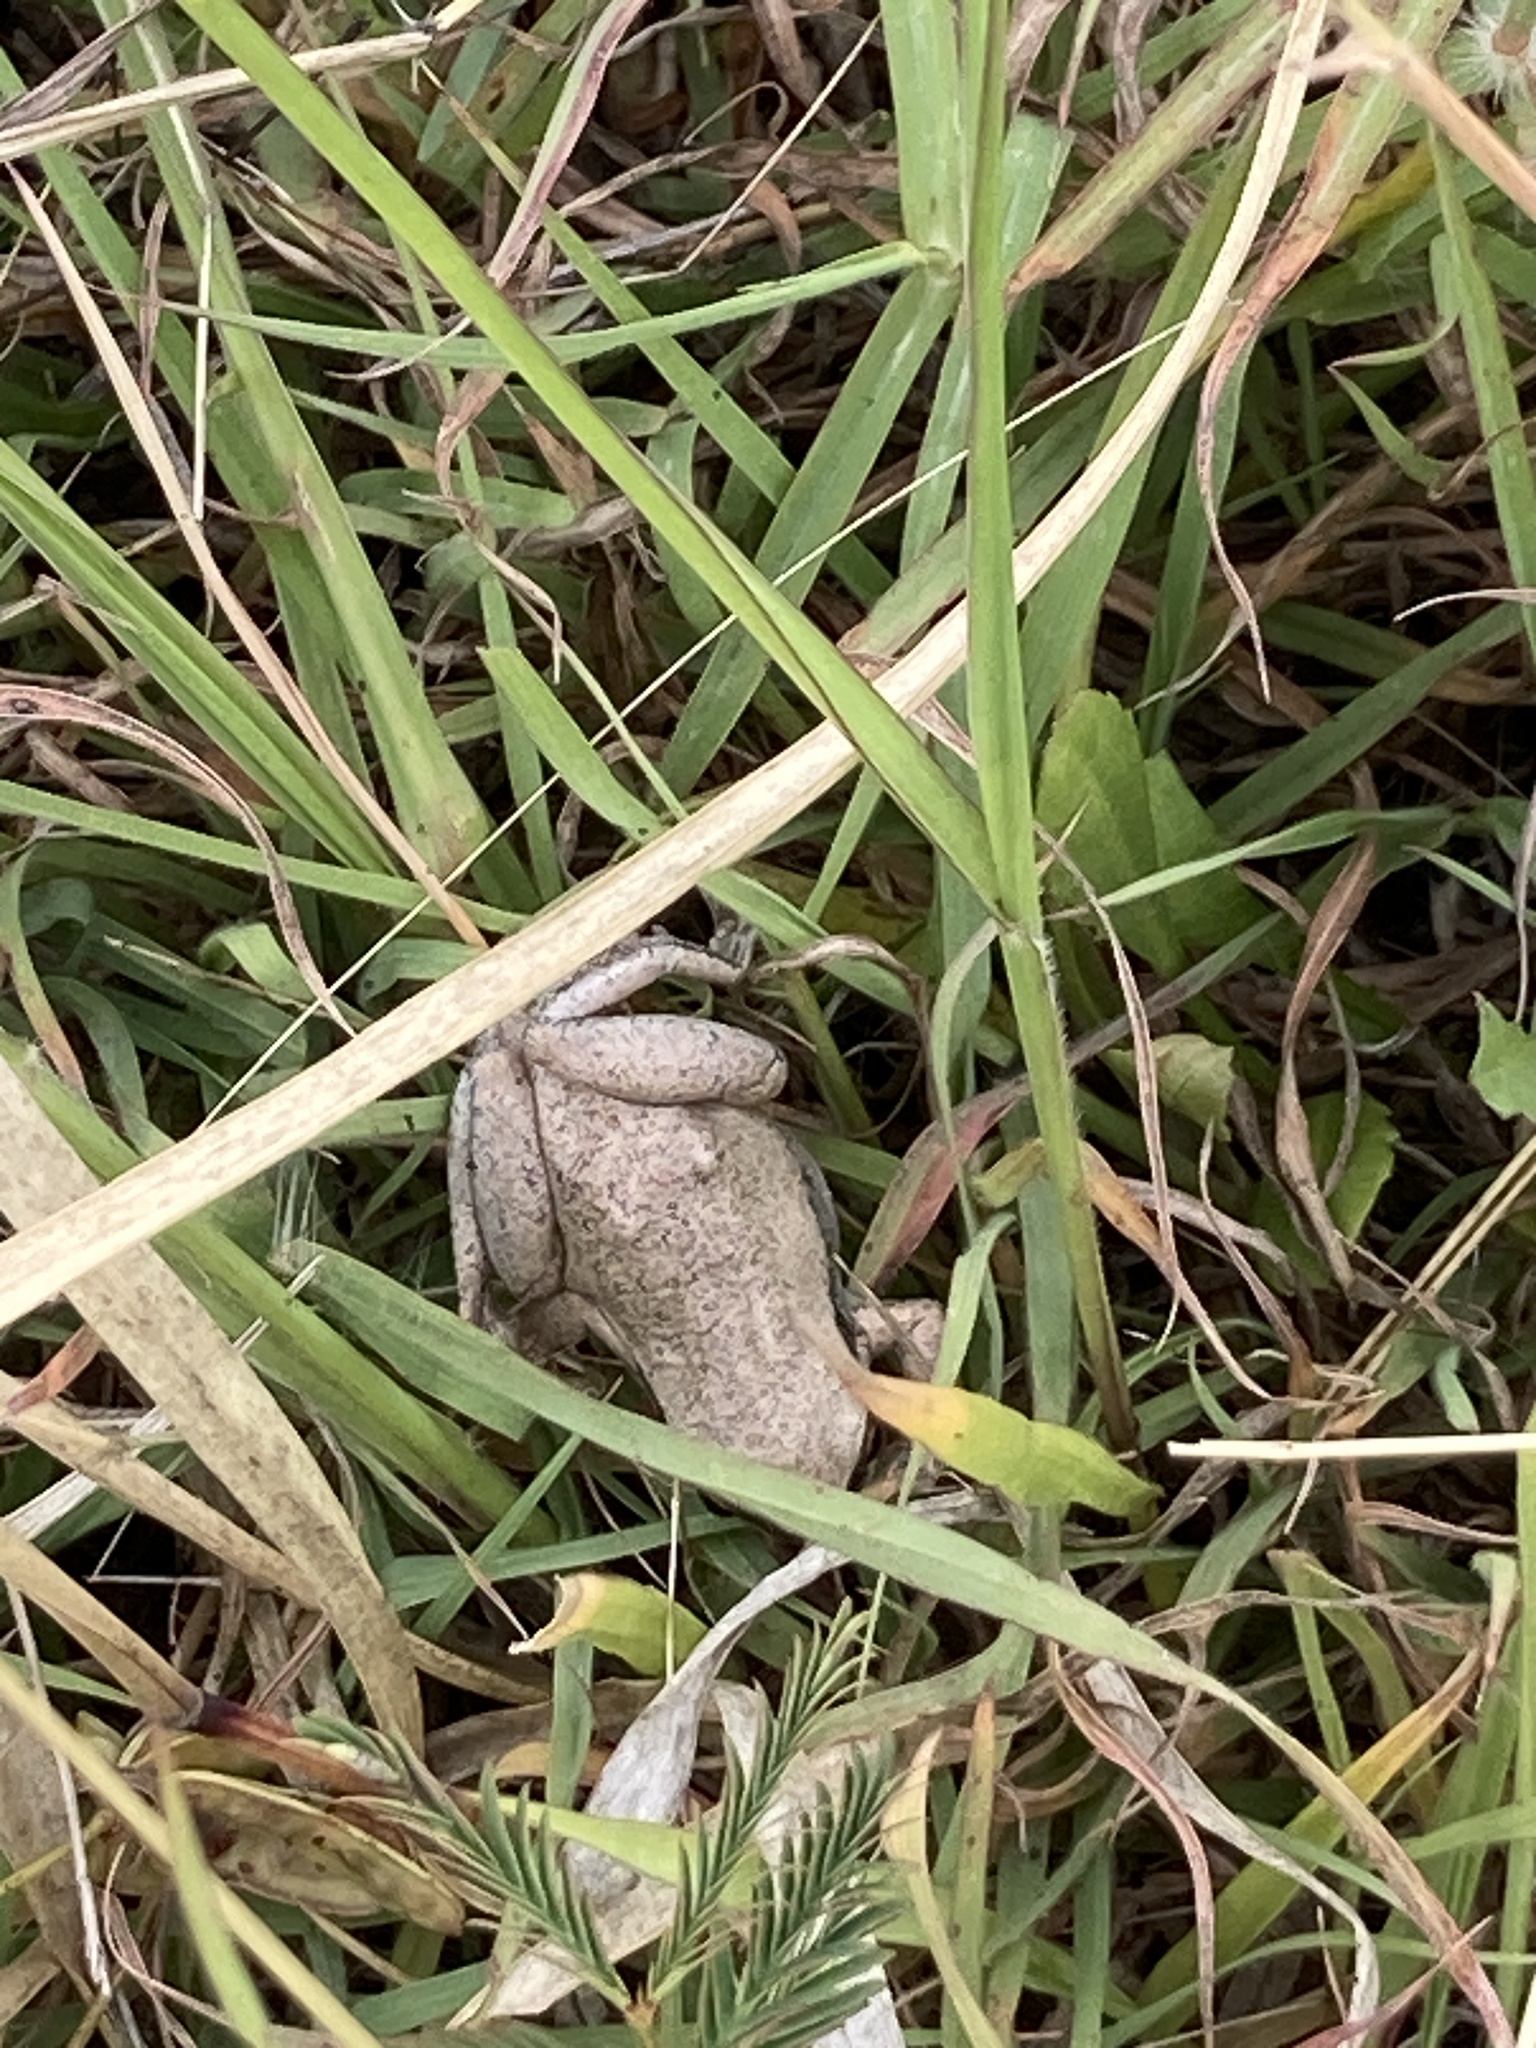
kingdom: Animalia
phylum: Chordata
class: Amphibia
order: Anura
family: Pelodryadidae
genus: Litoria
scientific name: Litoria rubella
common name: Desert tree frog
